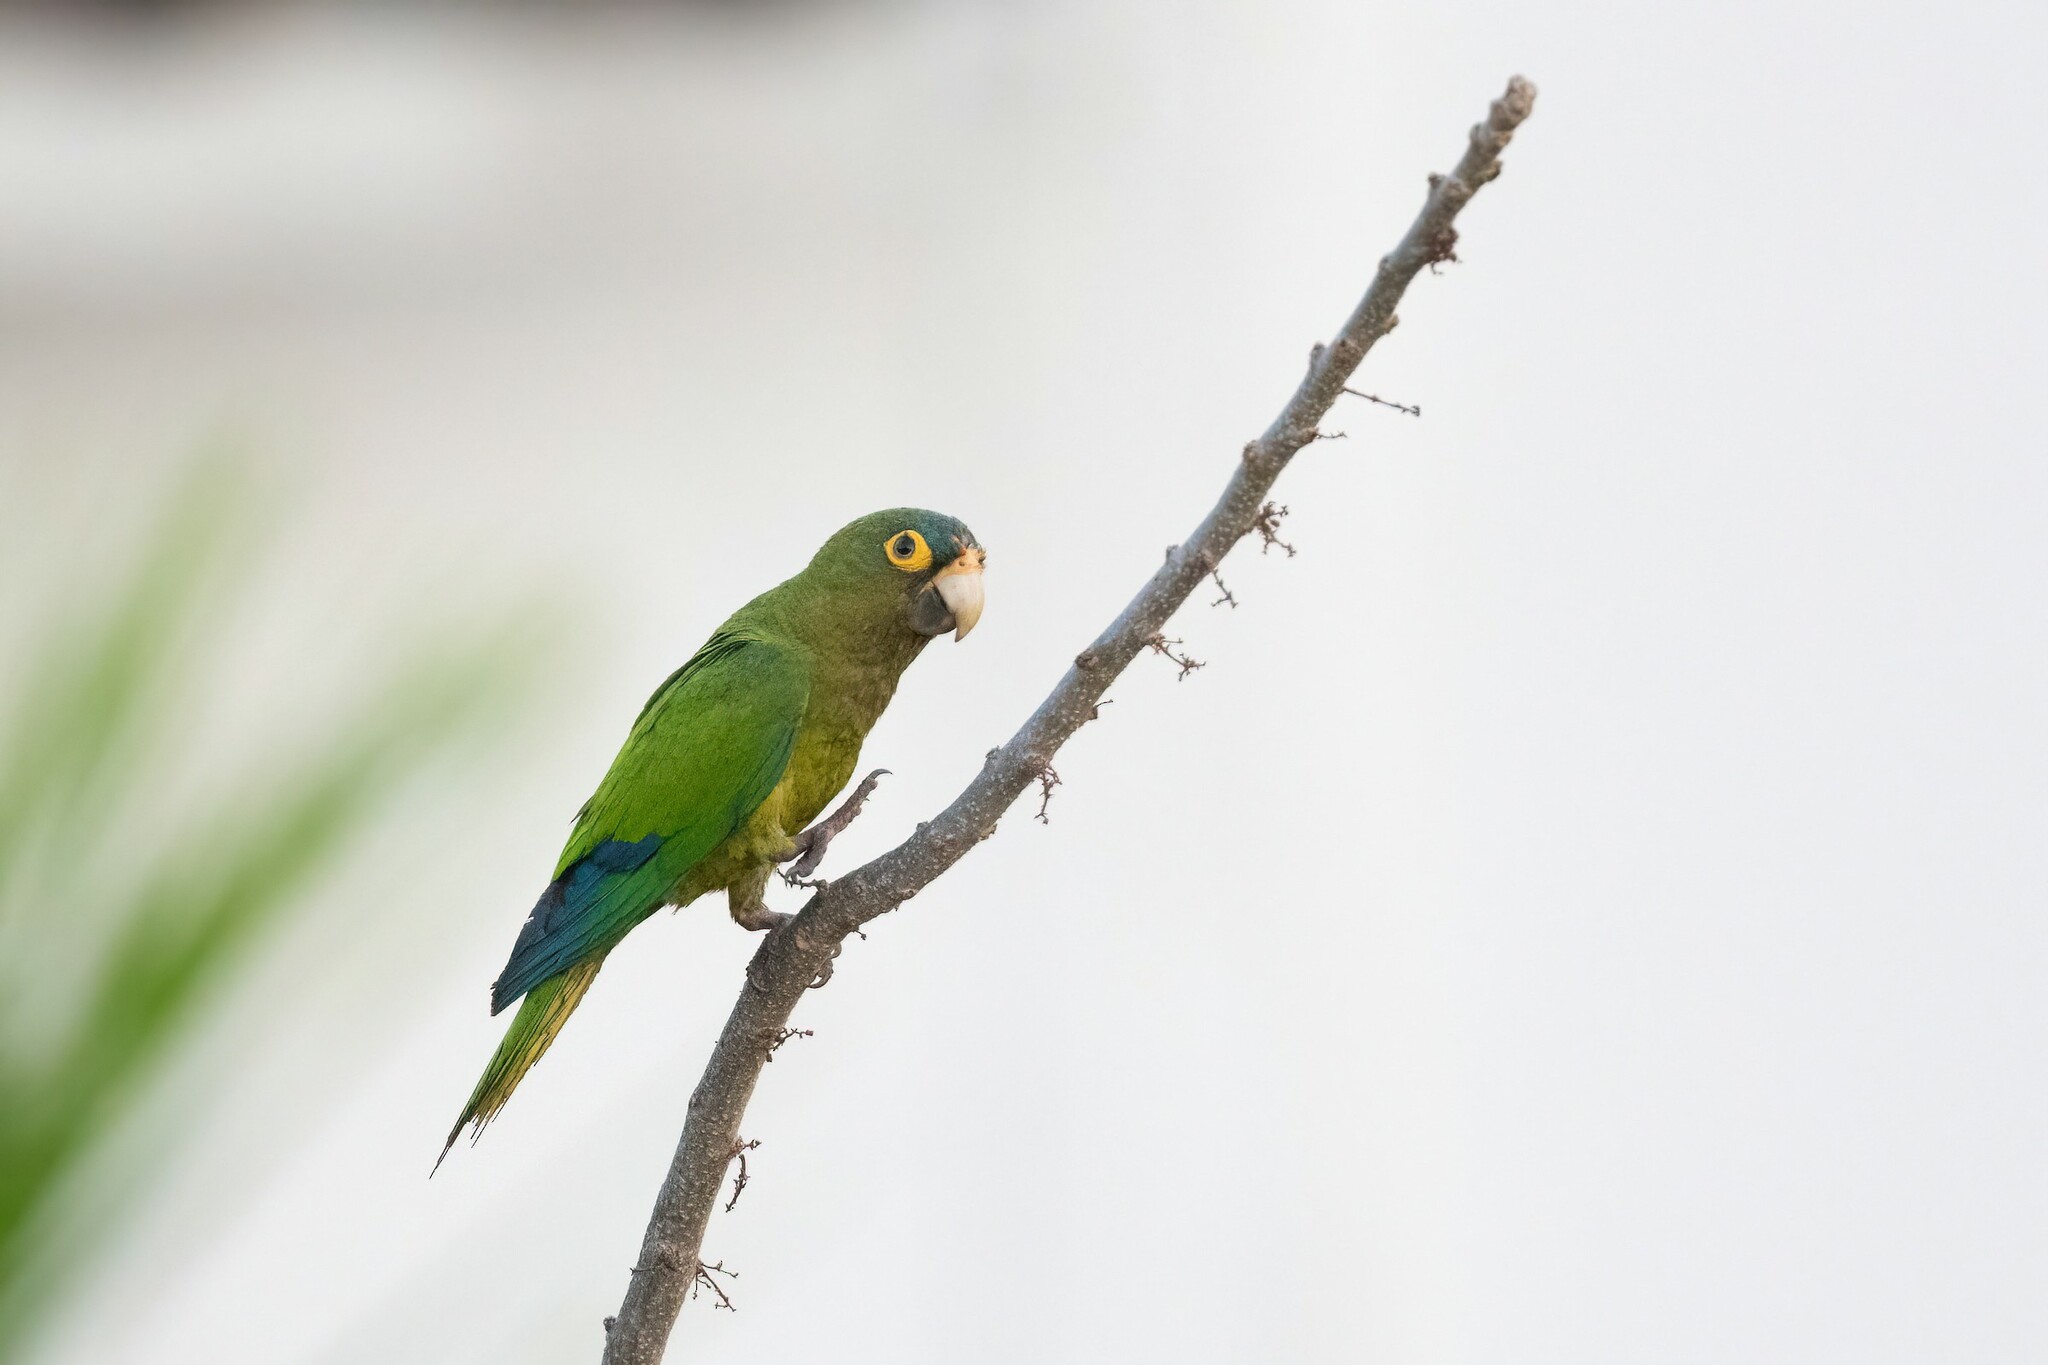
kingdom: Animalia
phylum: Chordata
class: Aves
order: Psittaciformes
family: Psittacidae
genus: Aratinga
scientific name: Aratinga canicularis
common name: Orange-fronted parakeet
